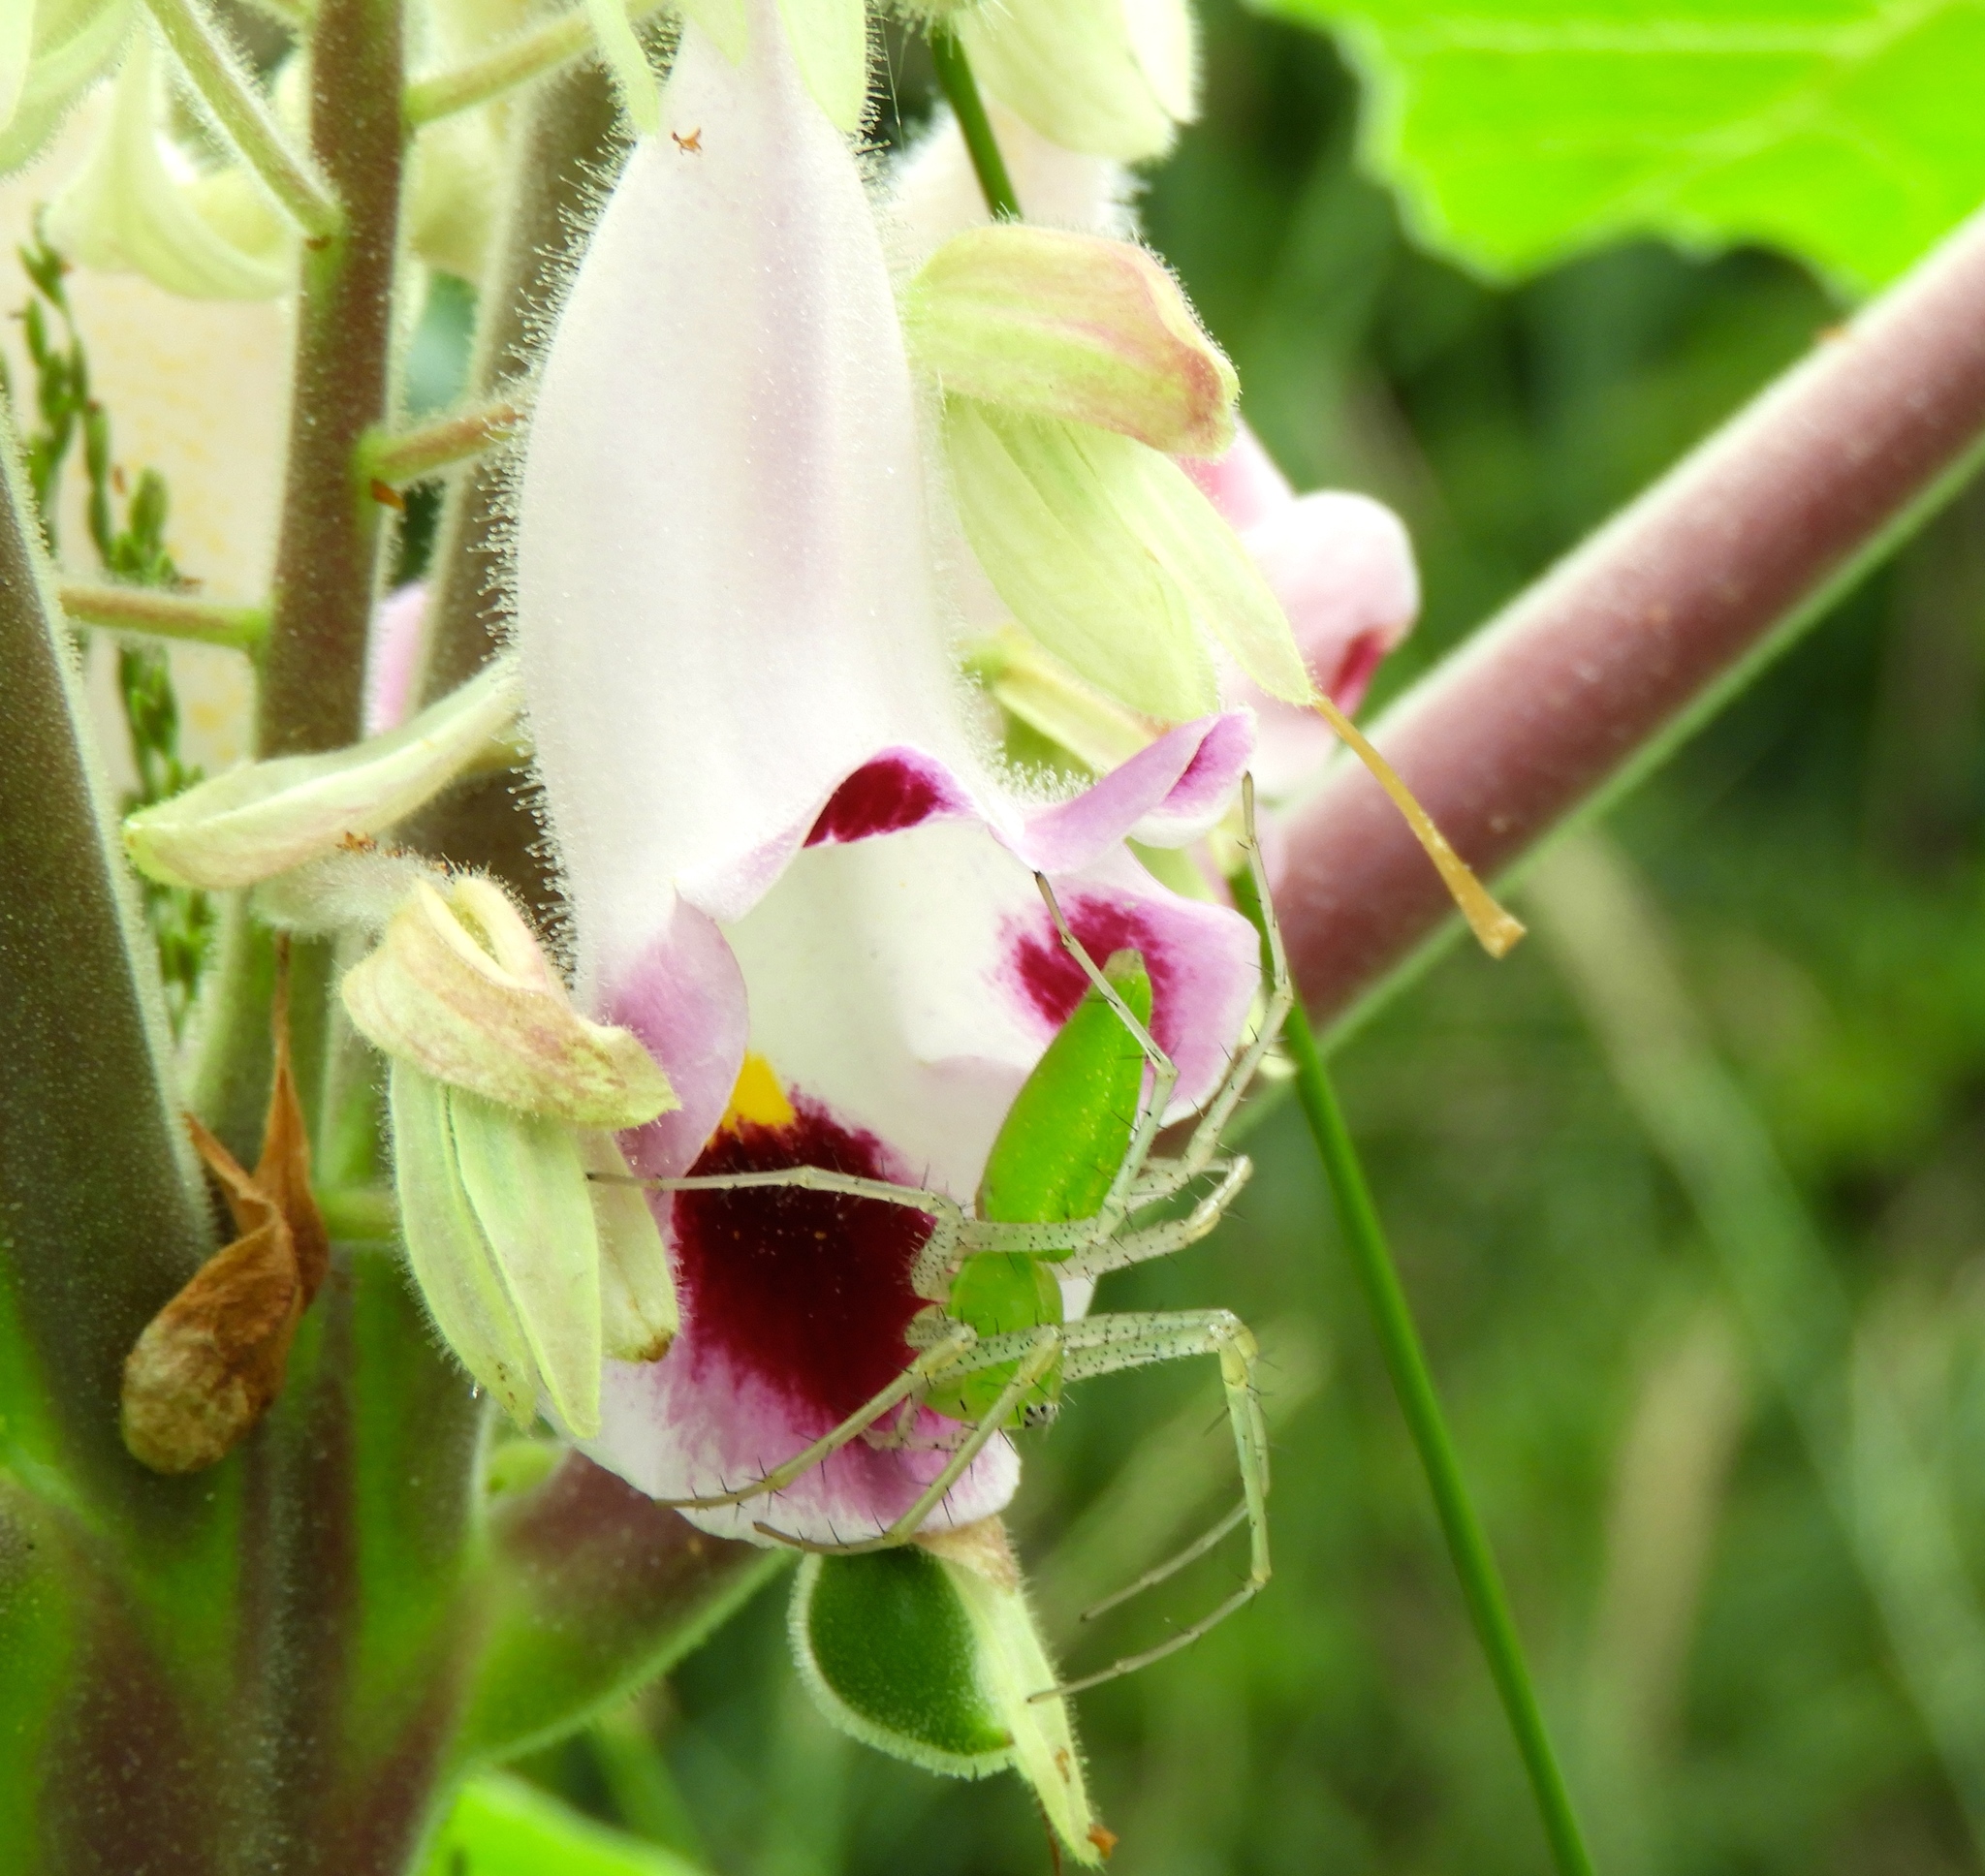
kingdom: Animalia
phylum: Arthropoda
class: Arachnida
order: Araneae
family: Oxyopidae
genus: Peucetia
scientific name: Peucetia
